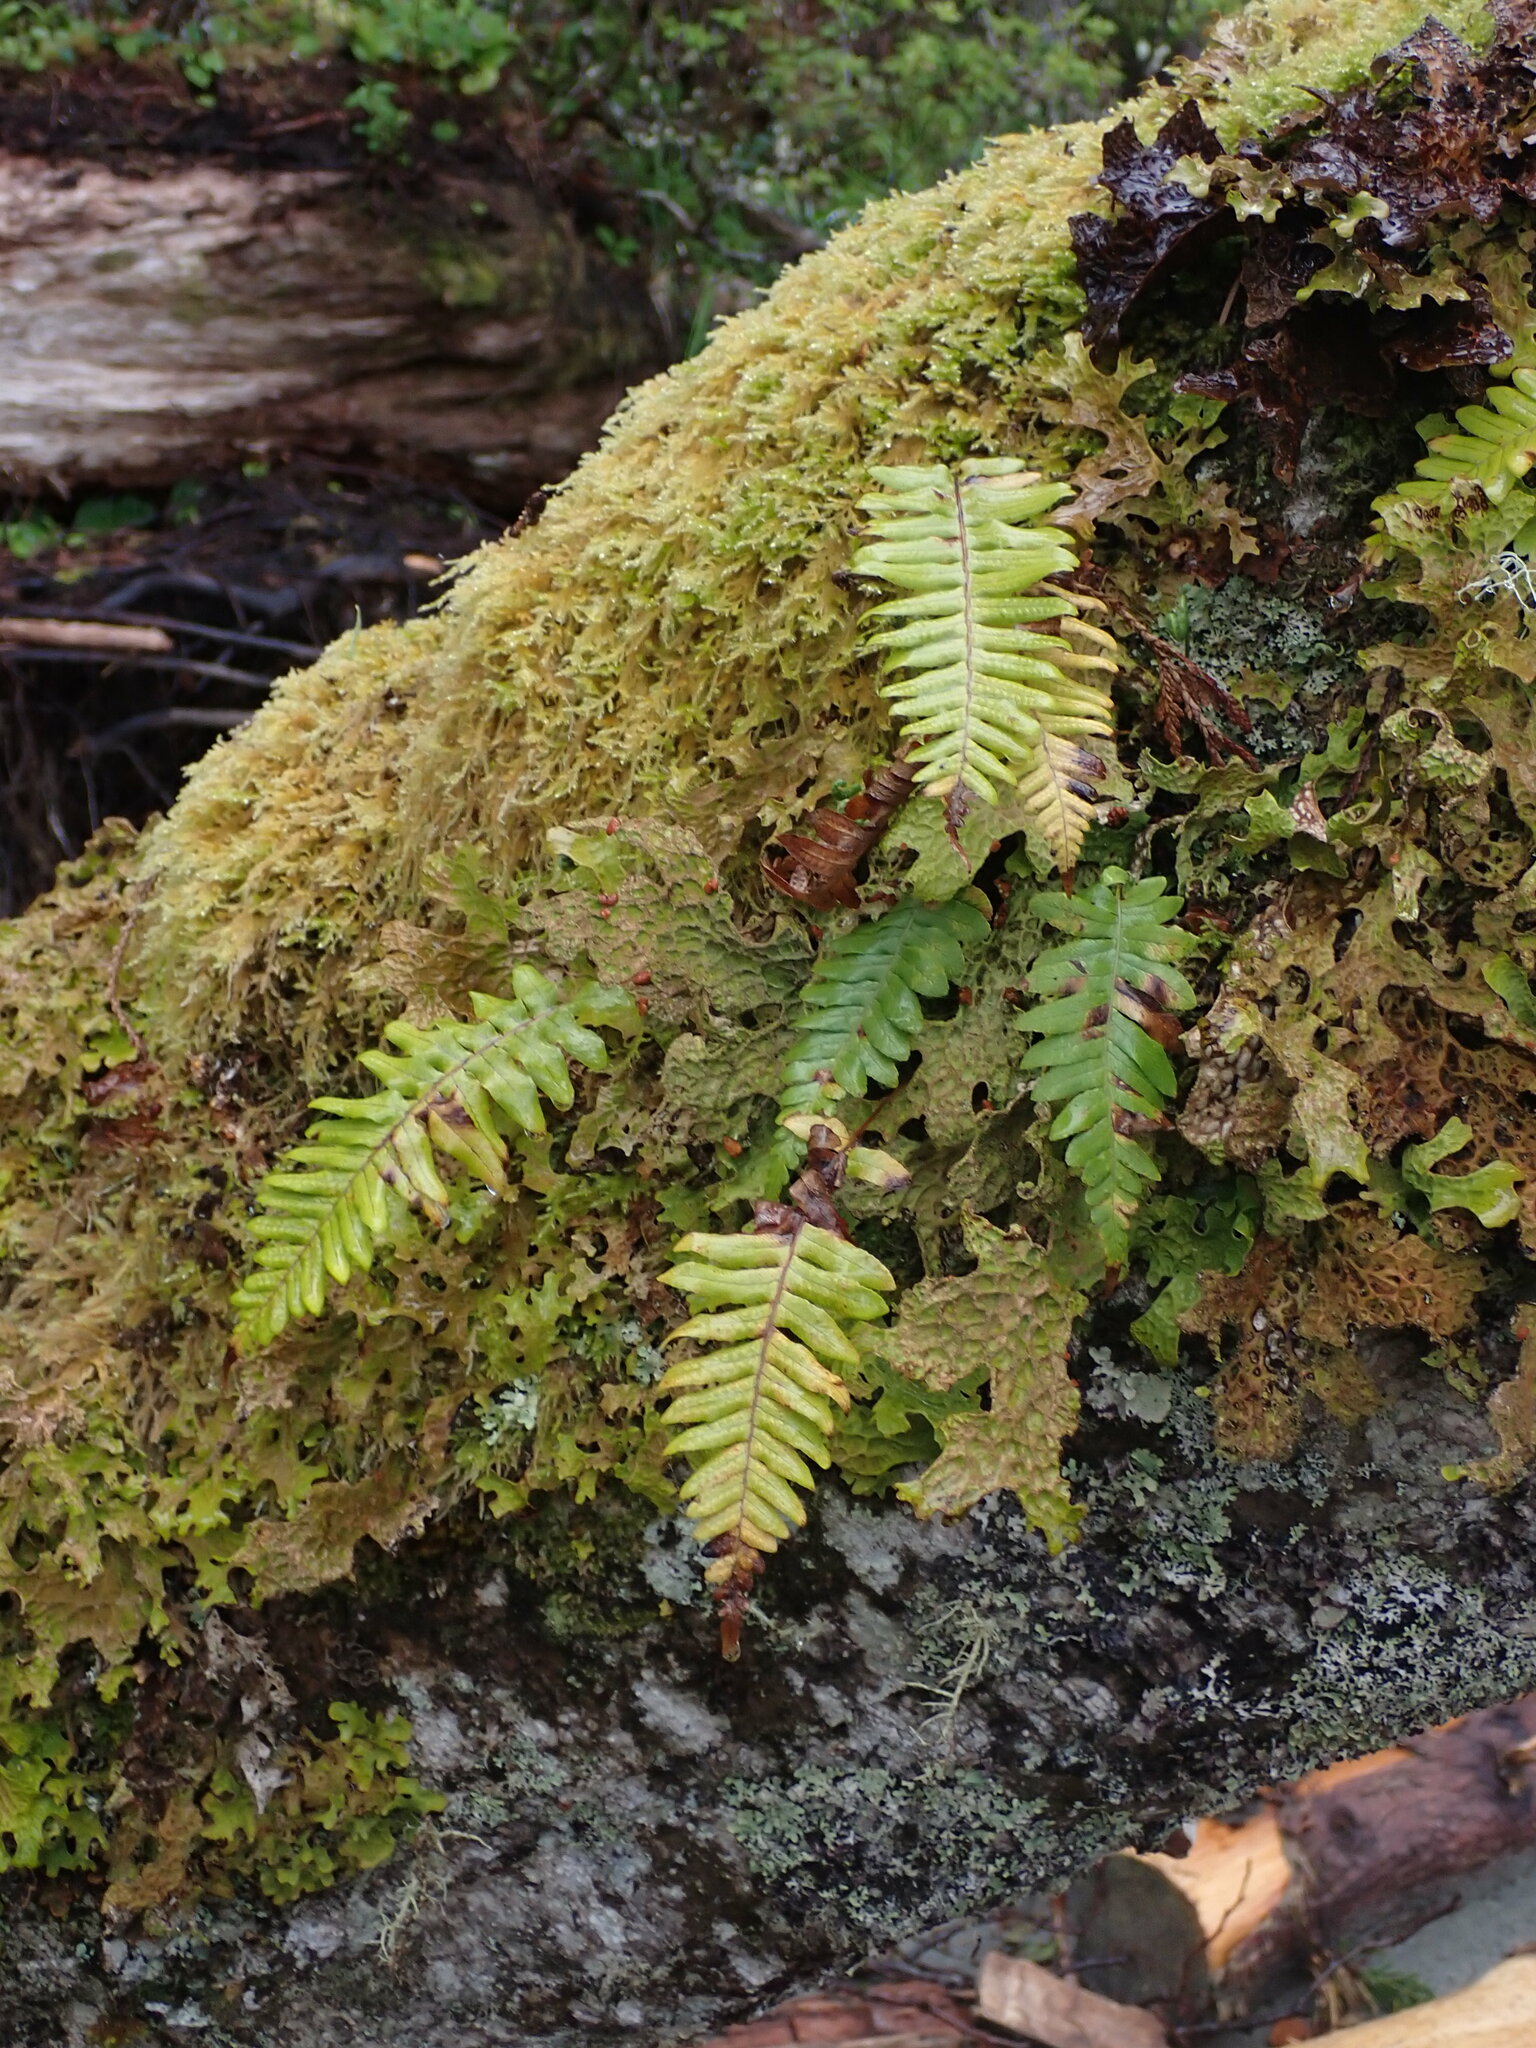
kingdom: Plantae
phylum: Tracheophyta
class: Polypodiopsida
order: Polypodiales
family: Polypodiaceae
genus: Polypodium
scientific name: Polypodium glycyrrhiza
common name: Licorice fern
